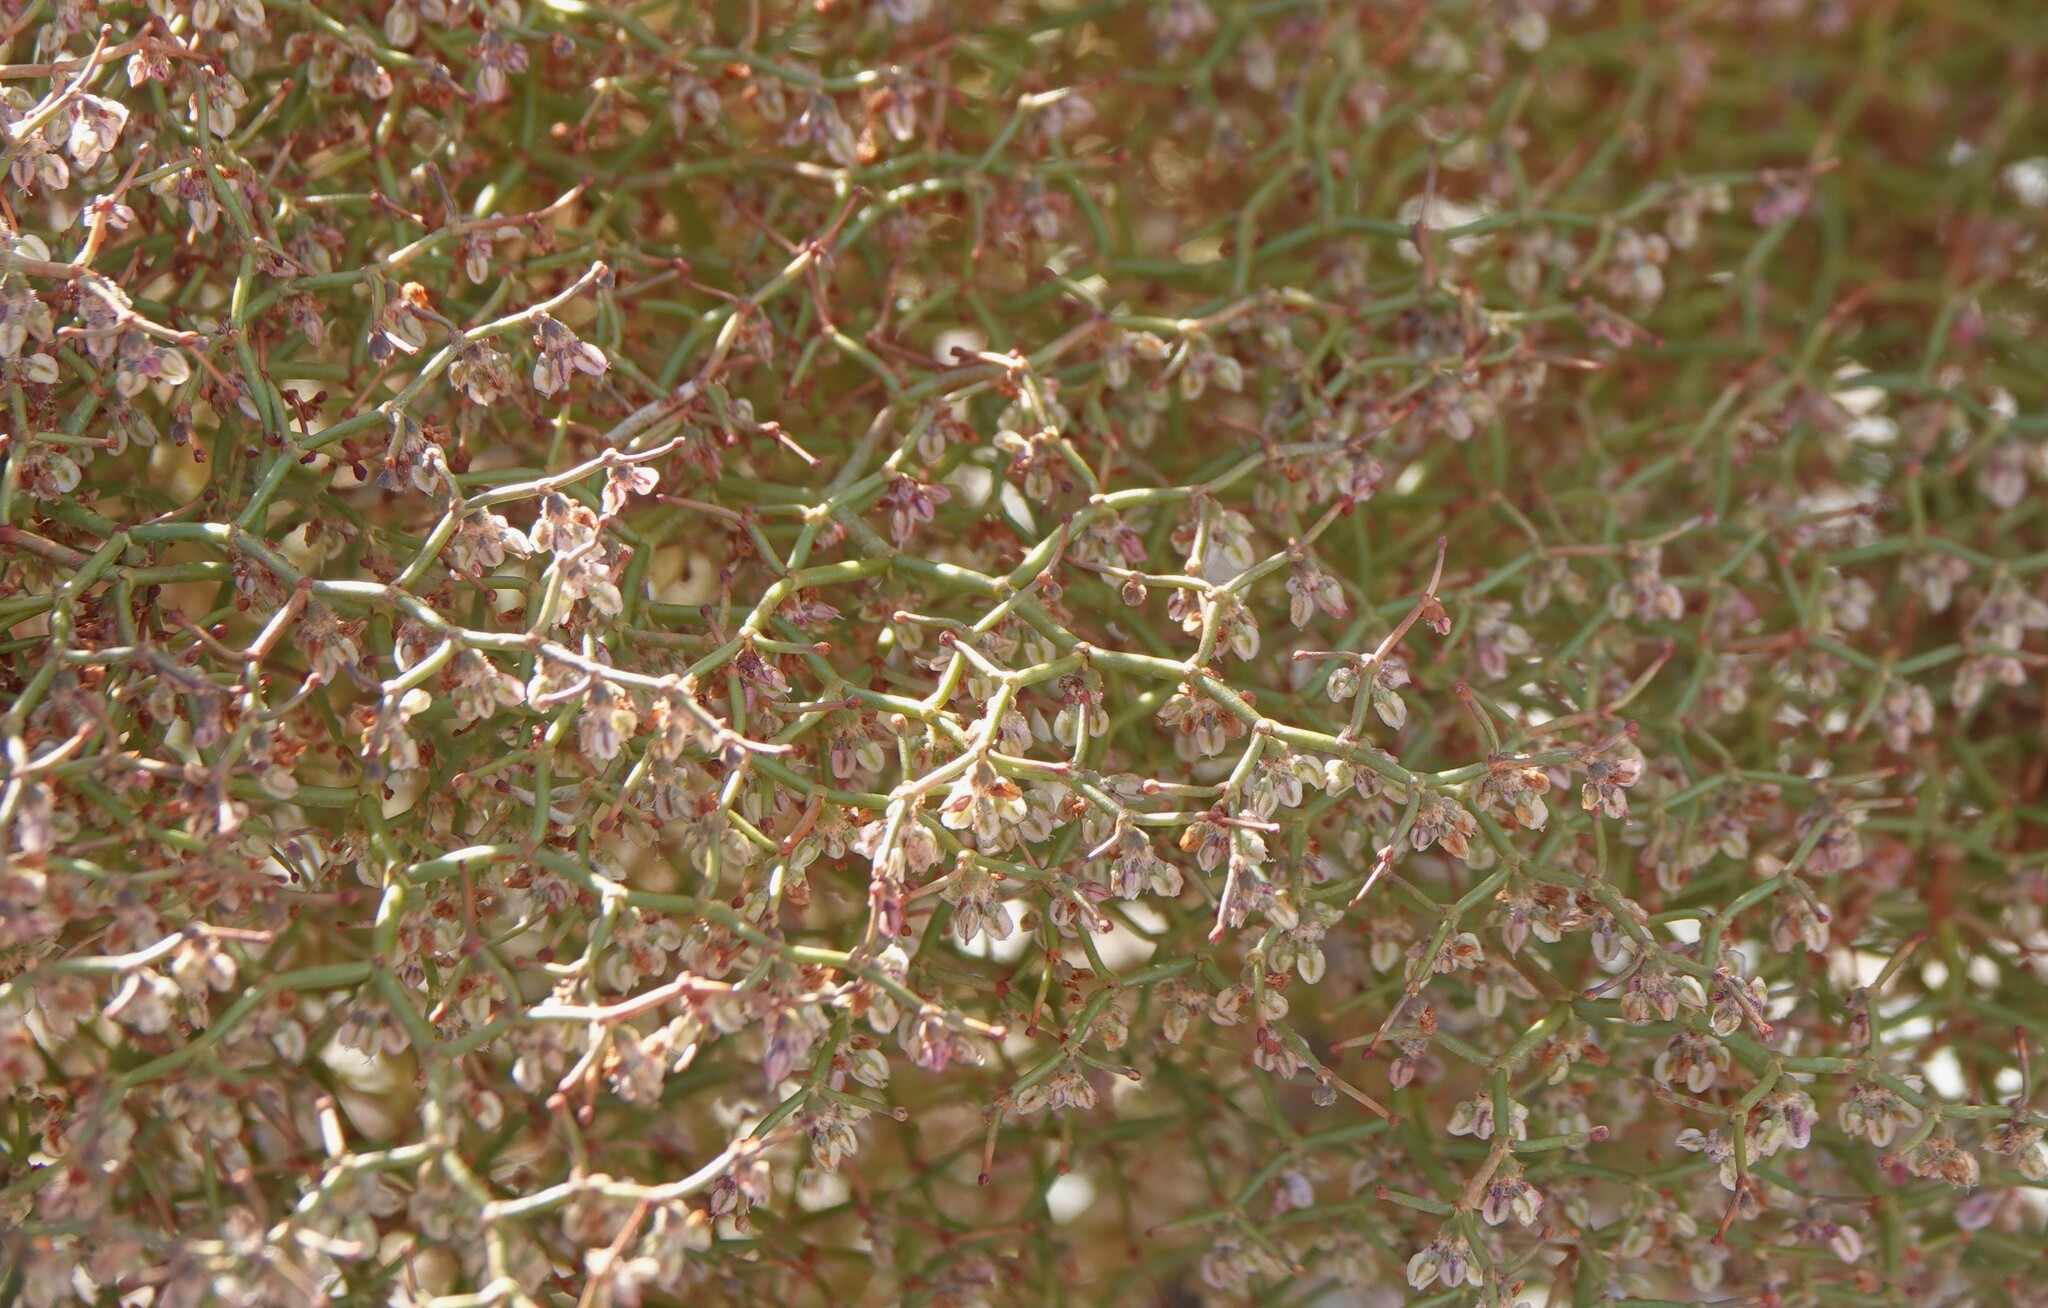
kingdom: Plantae
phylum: Tracheophyta
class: Magnoliopsida
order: Caryophyllales
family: Polygonaceae
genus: Eriogonum
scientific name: Eriogonum rixfordii
